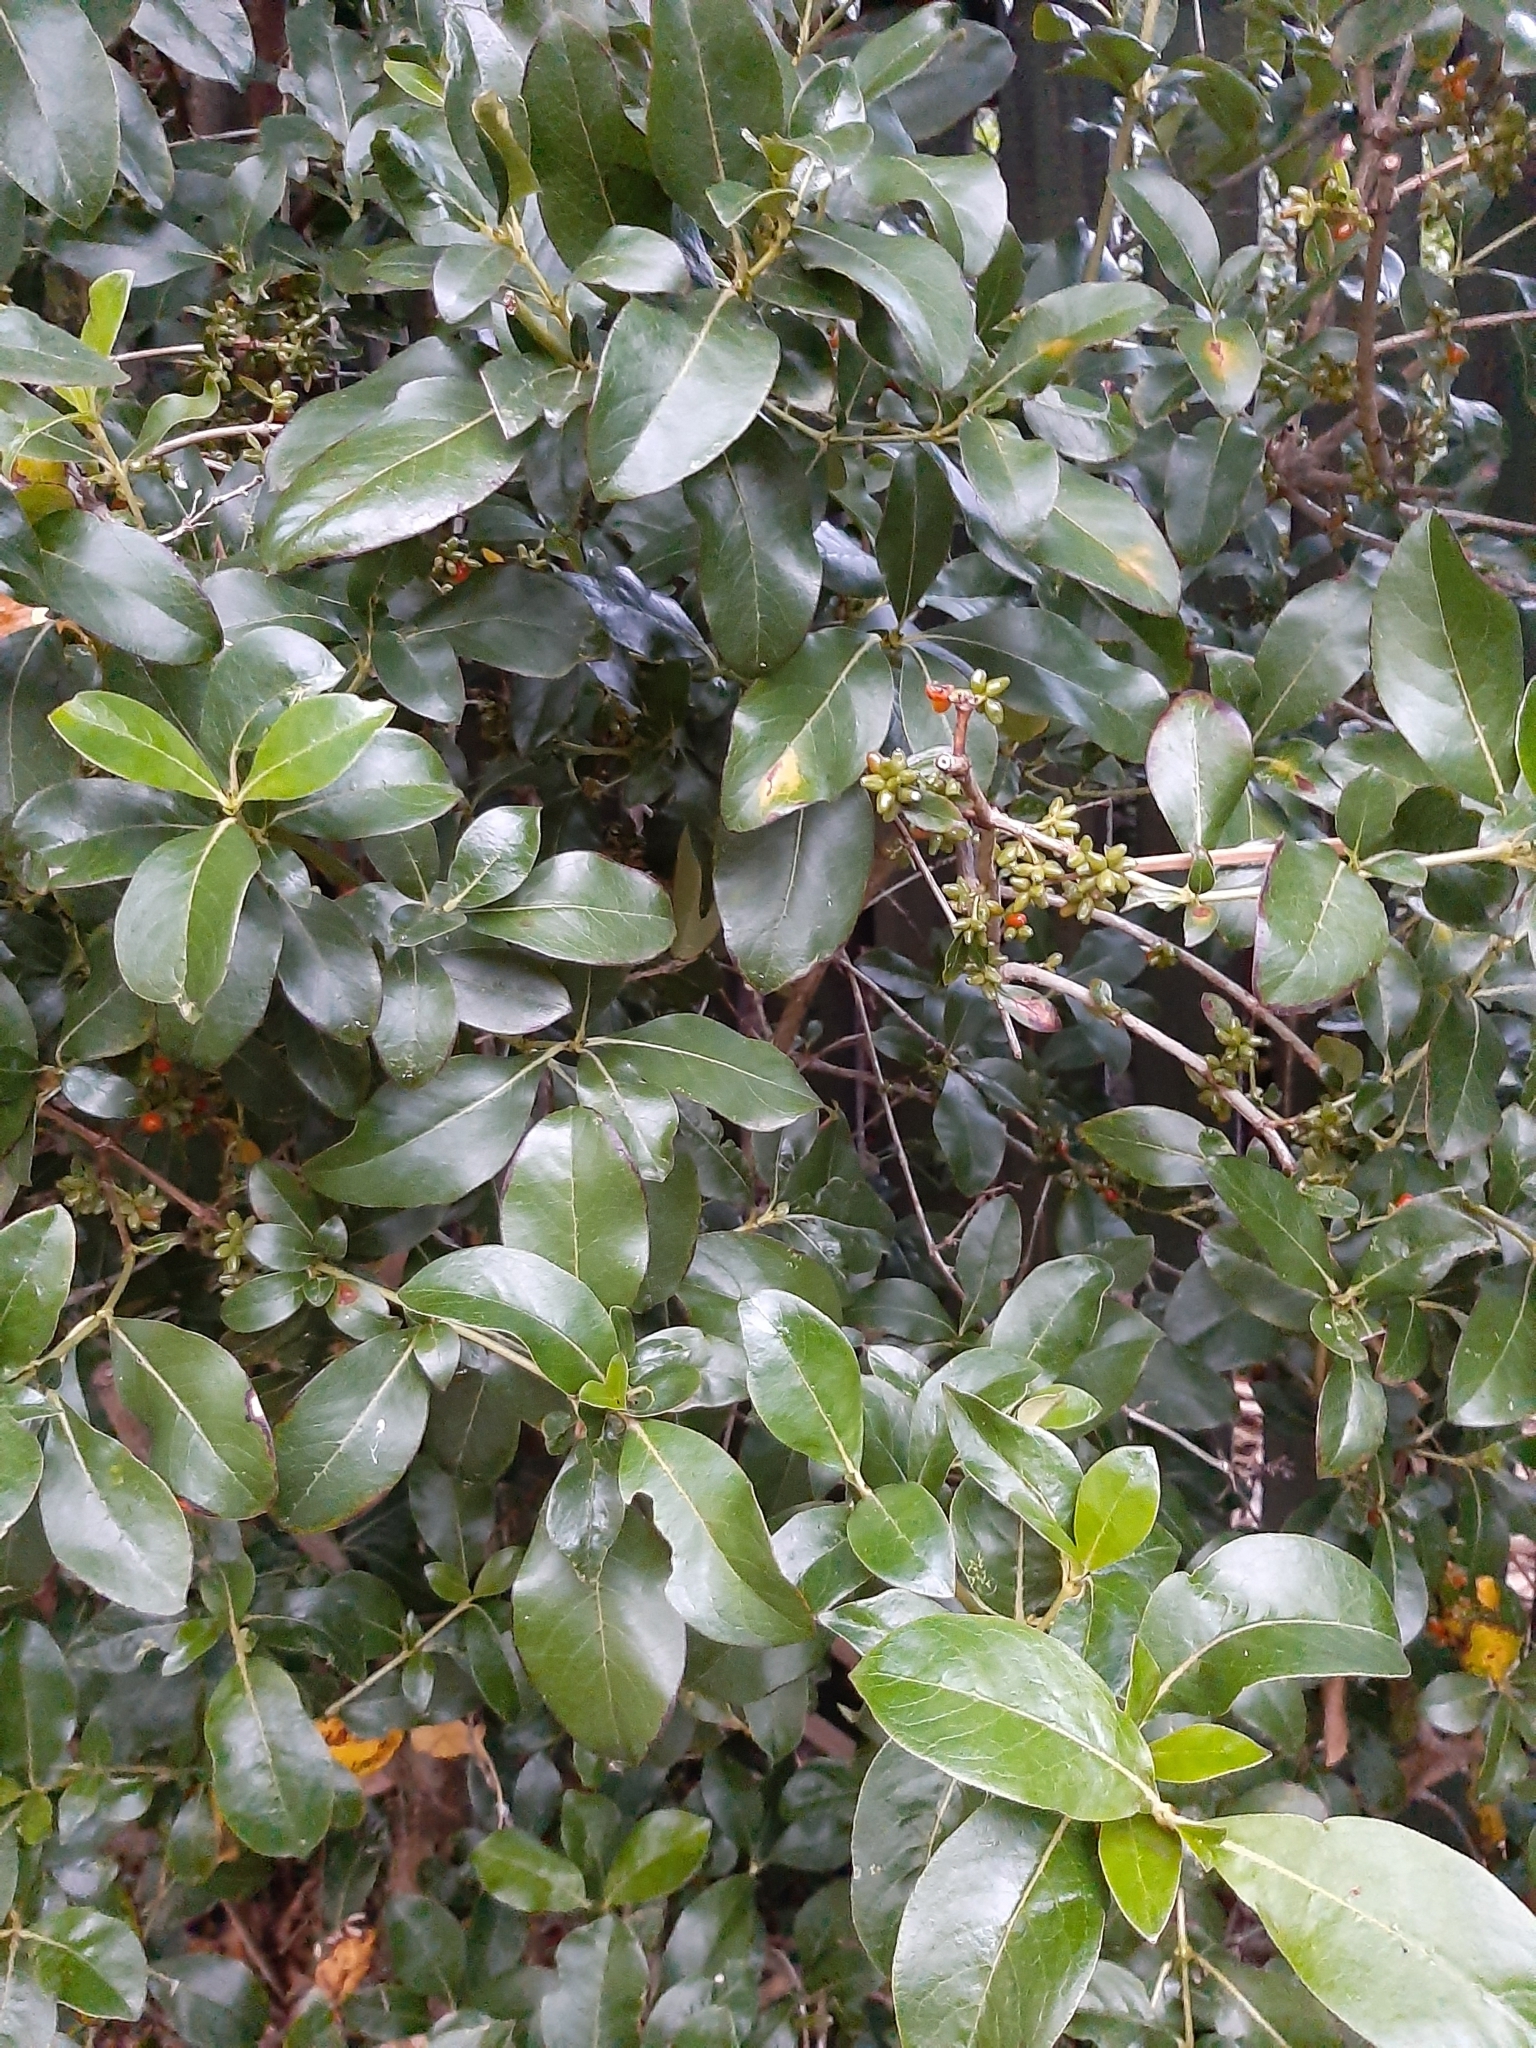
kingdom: Plantae
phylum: Tracheophyta
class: Magnoliopsida
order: Gentianales
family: Rubiaceae
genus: Coprosma
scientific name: Coprosma robusta
